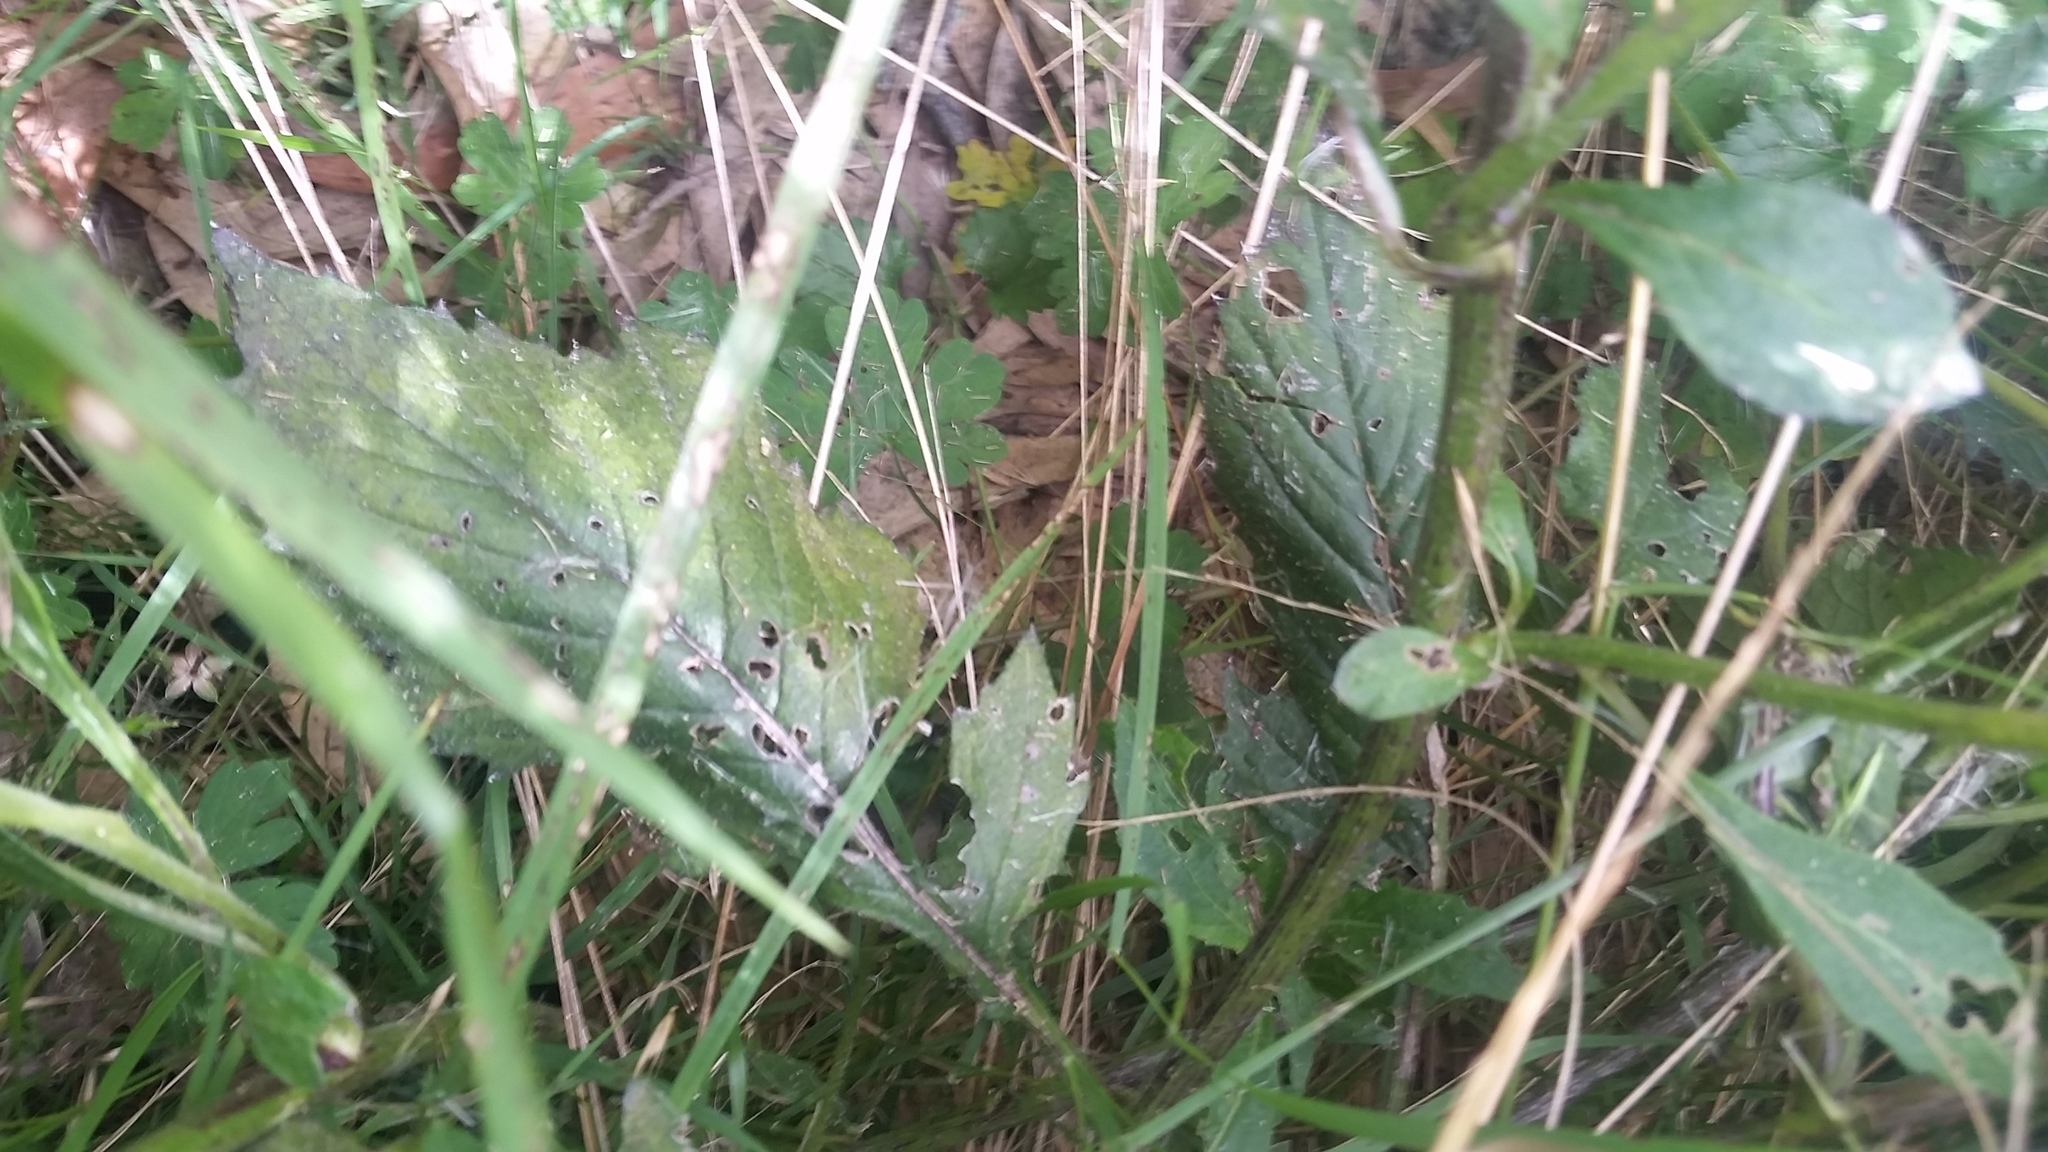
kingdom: Plantae
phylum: Tracheophyta
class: Magnoliopsida
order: Asterales
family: Asteraceae
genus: Crassocephalum
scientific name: Crassocephalum crepidioides
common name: Redflower ragleaf
